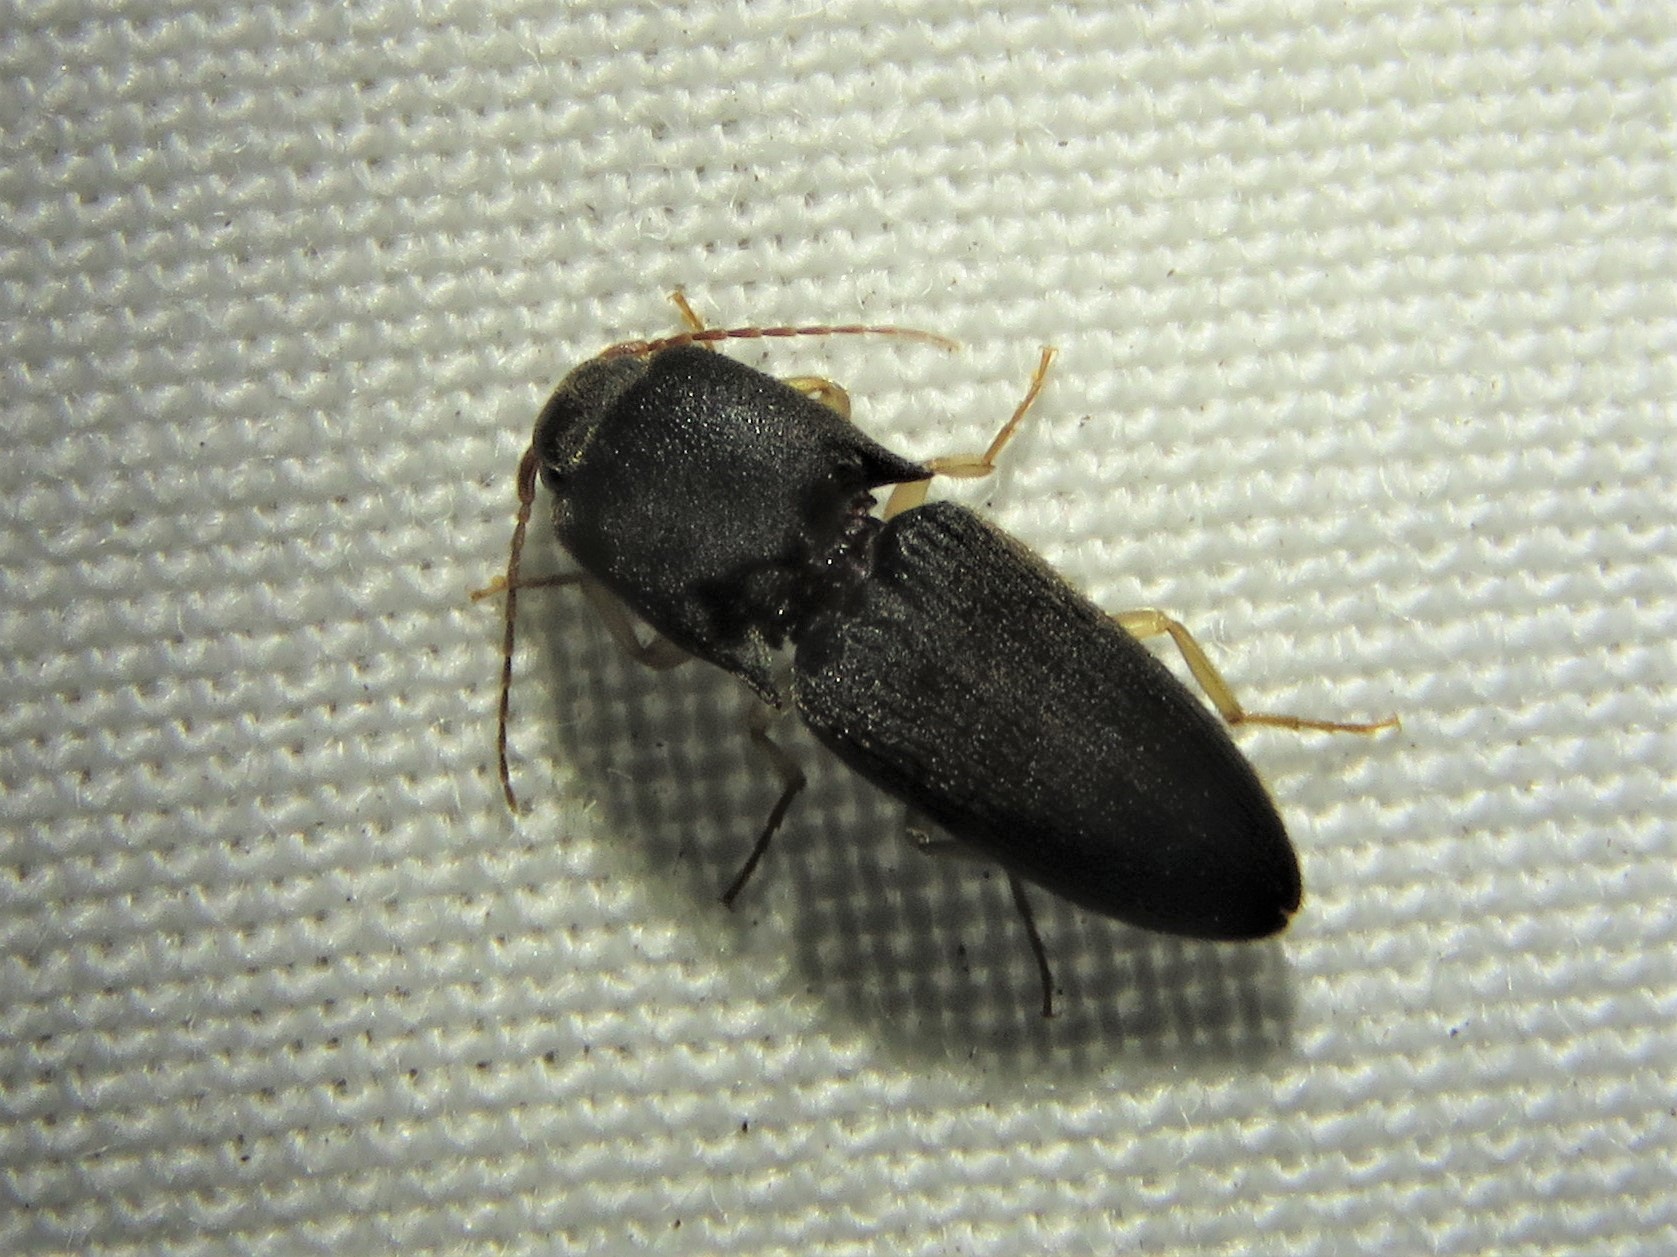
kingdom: Animalia
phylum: Arthropoda
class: Insecta
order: Coleoptera
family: Elateridae
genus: Heteroderes
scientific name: Heteroderes amplicollis
